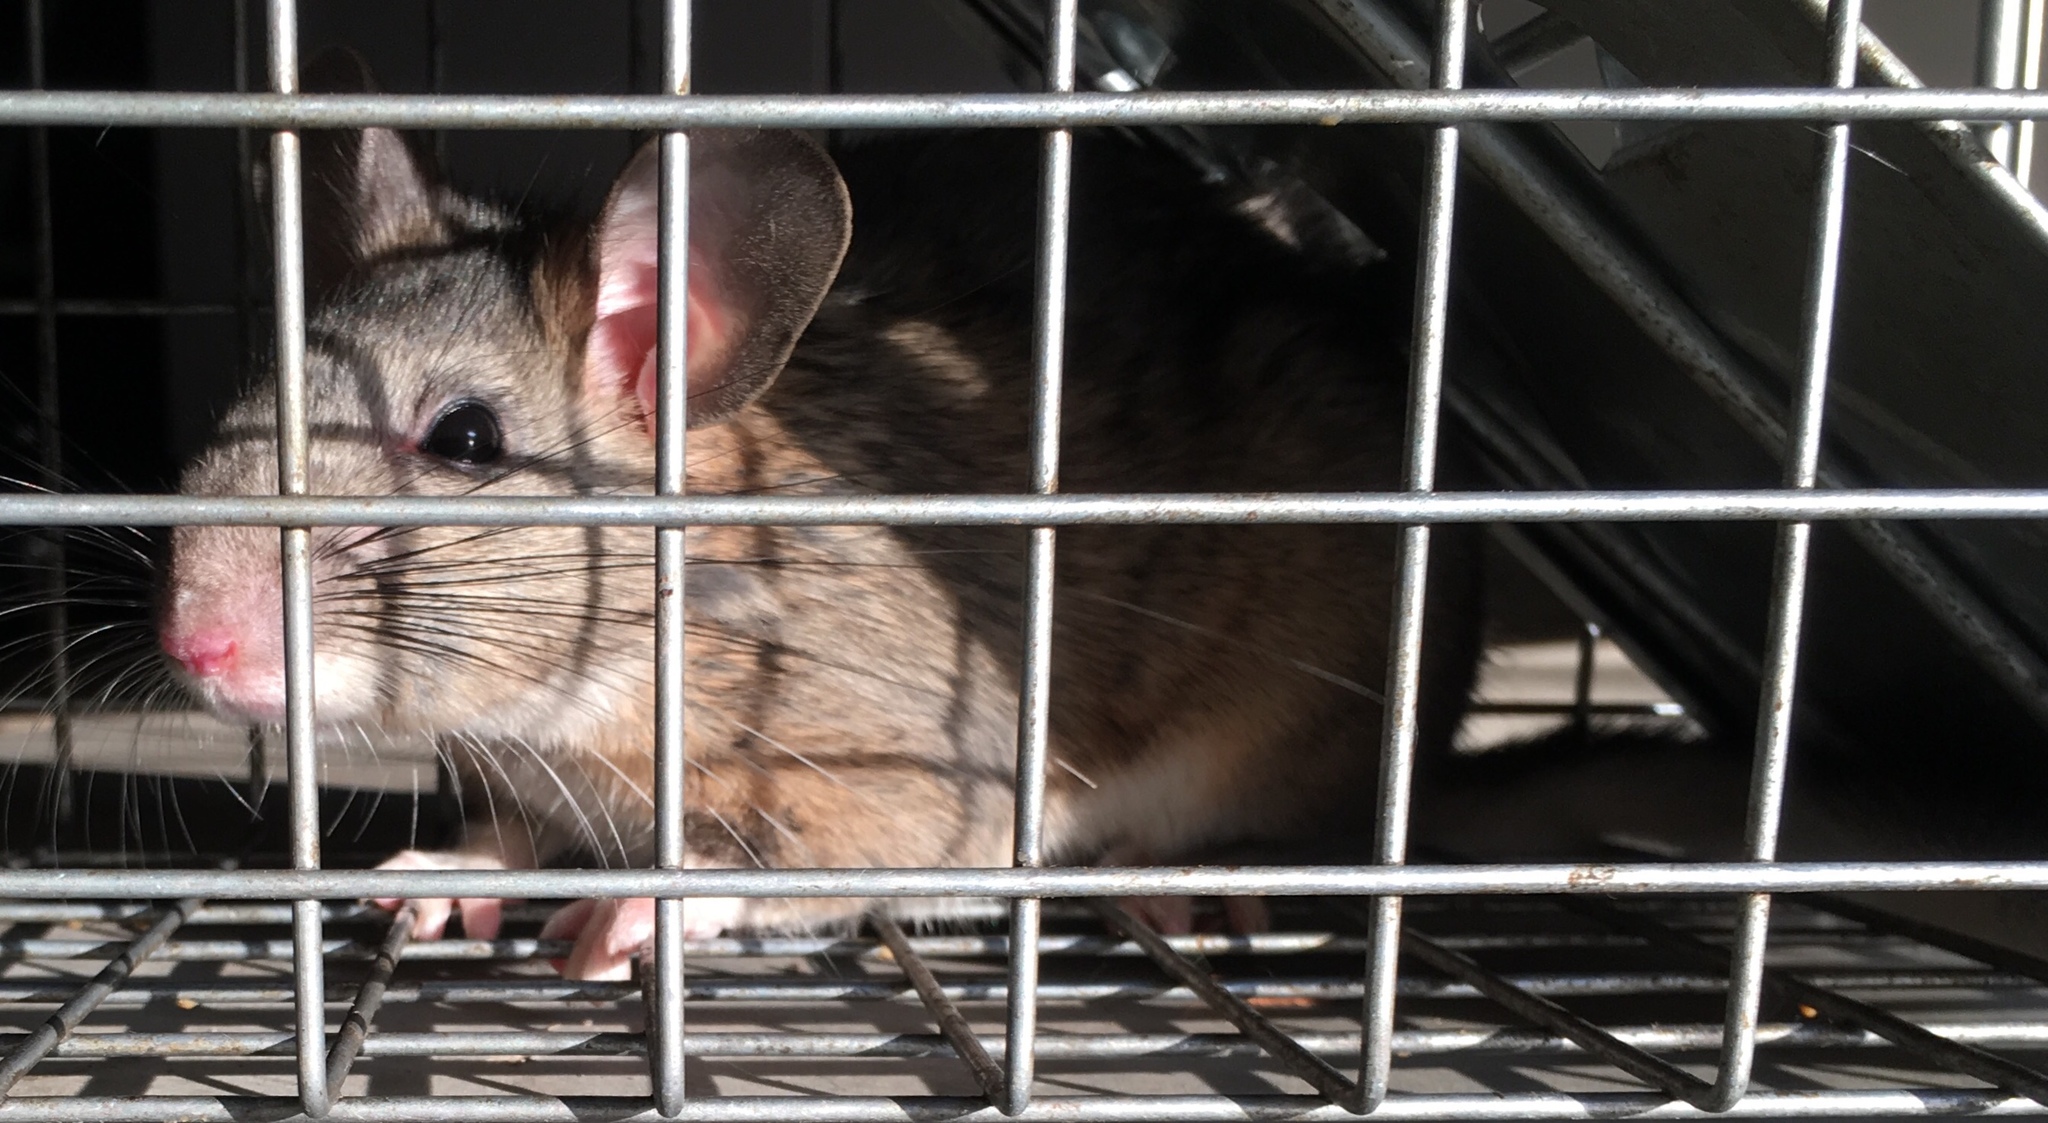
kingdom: Animalia
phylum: Chordata
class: Mammalia
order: Rodentia
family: Cricetidae
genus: Neotoma
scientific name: Neotoma cinerea
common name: Bushy-tailed woodrat
